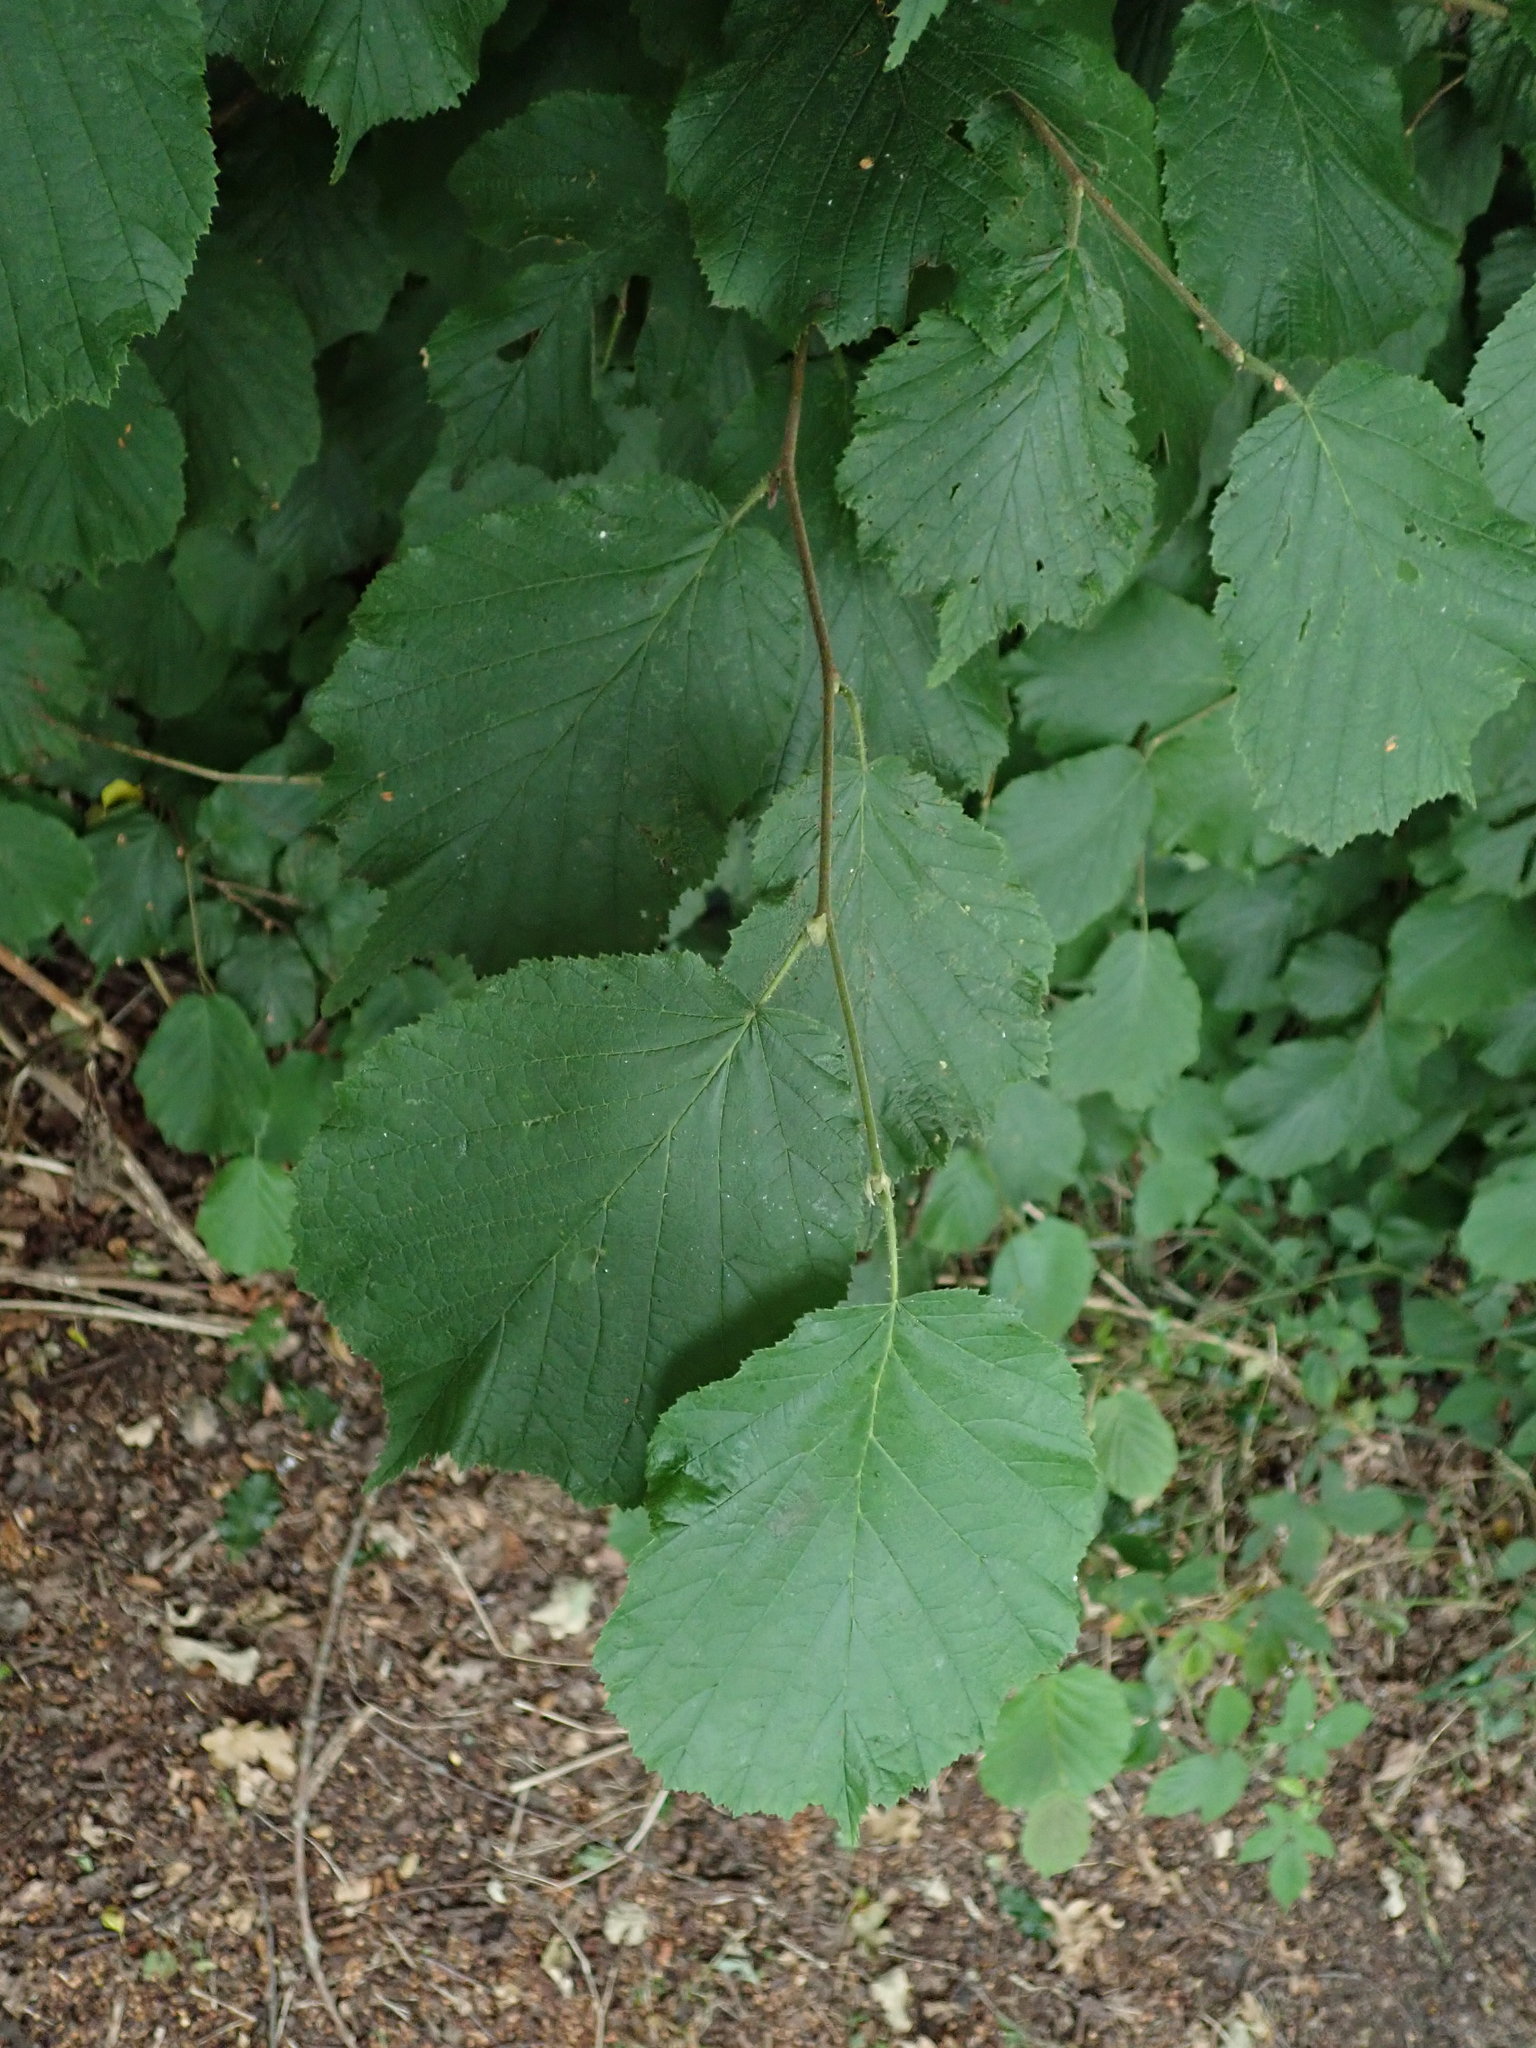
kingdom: Plantae
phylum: Tracheophyta
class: Magnoliopsida
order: Fagales
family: Betulaceae
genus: Corylus
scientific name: Corylus avellana
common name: European hazel
